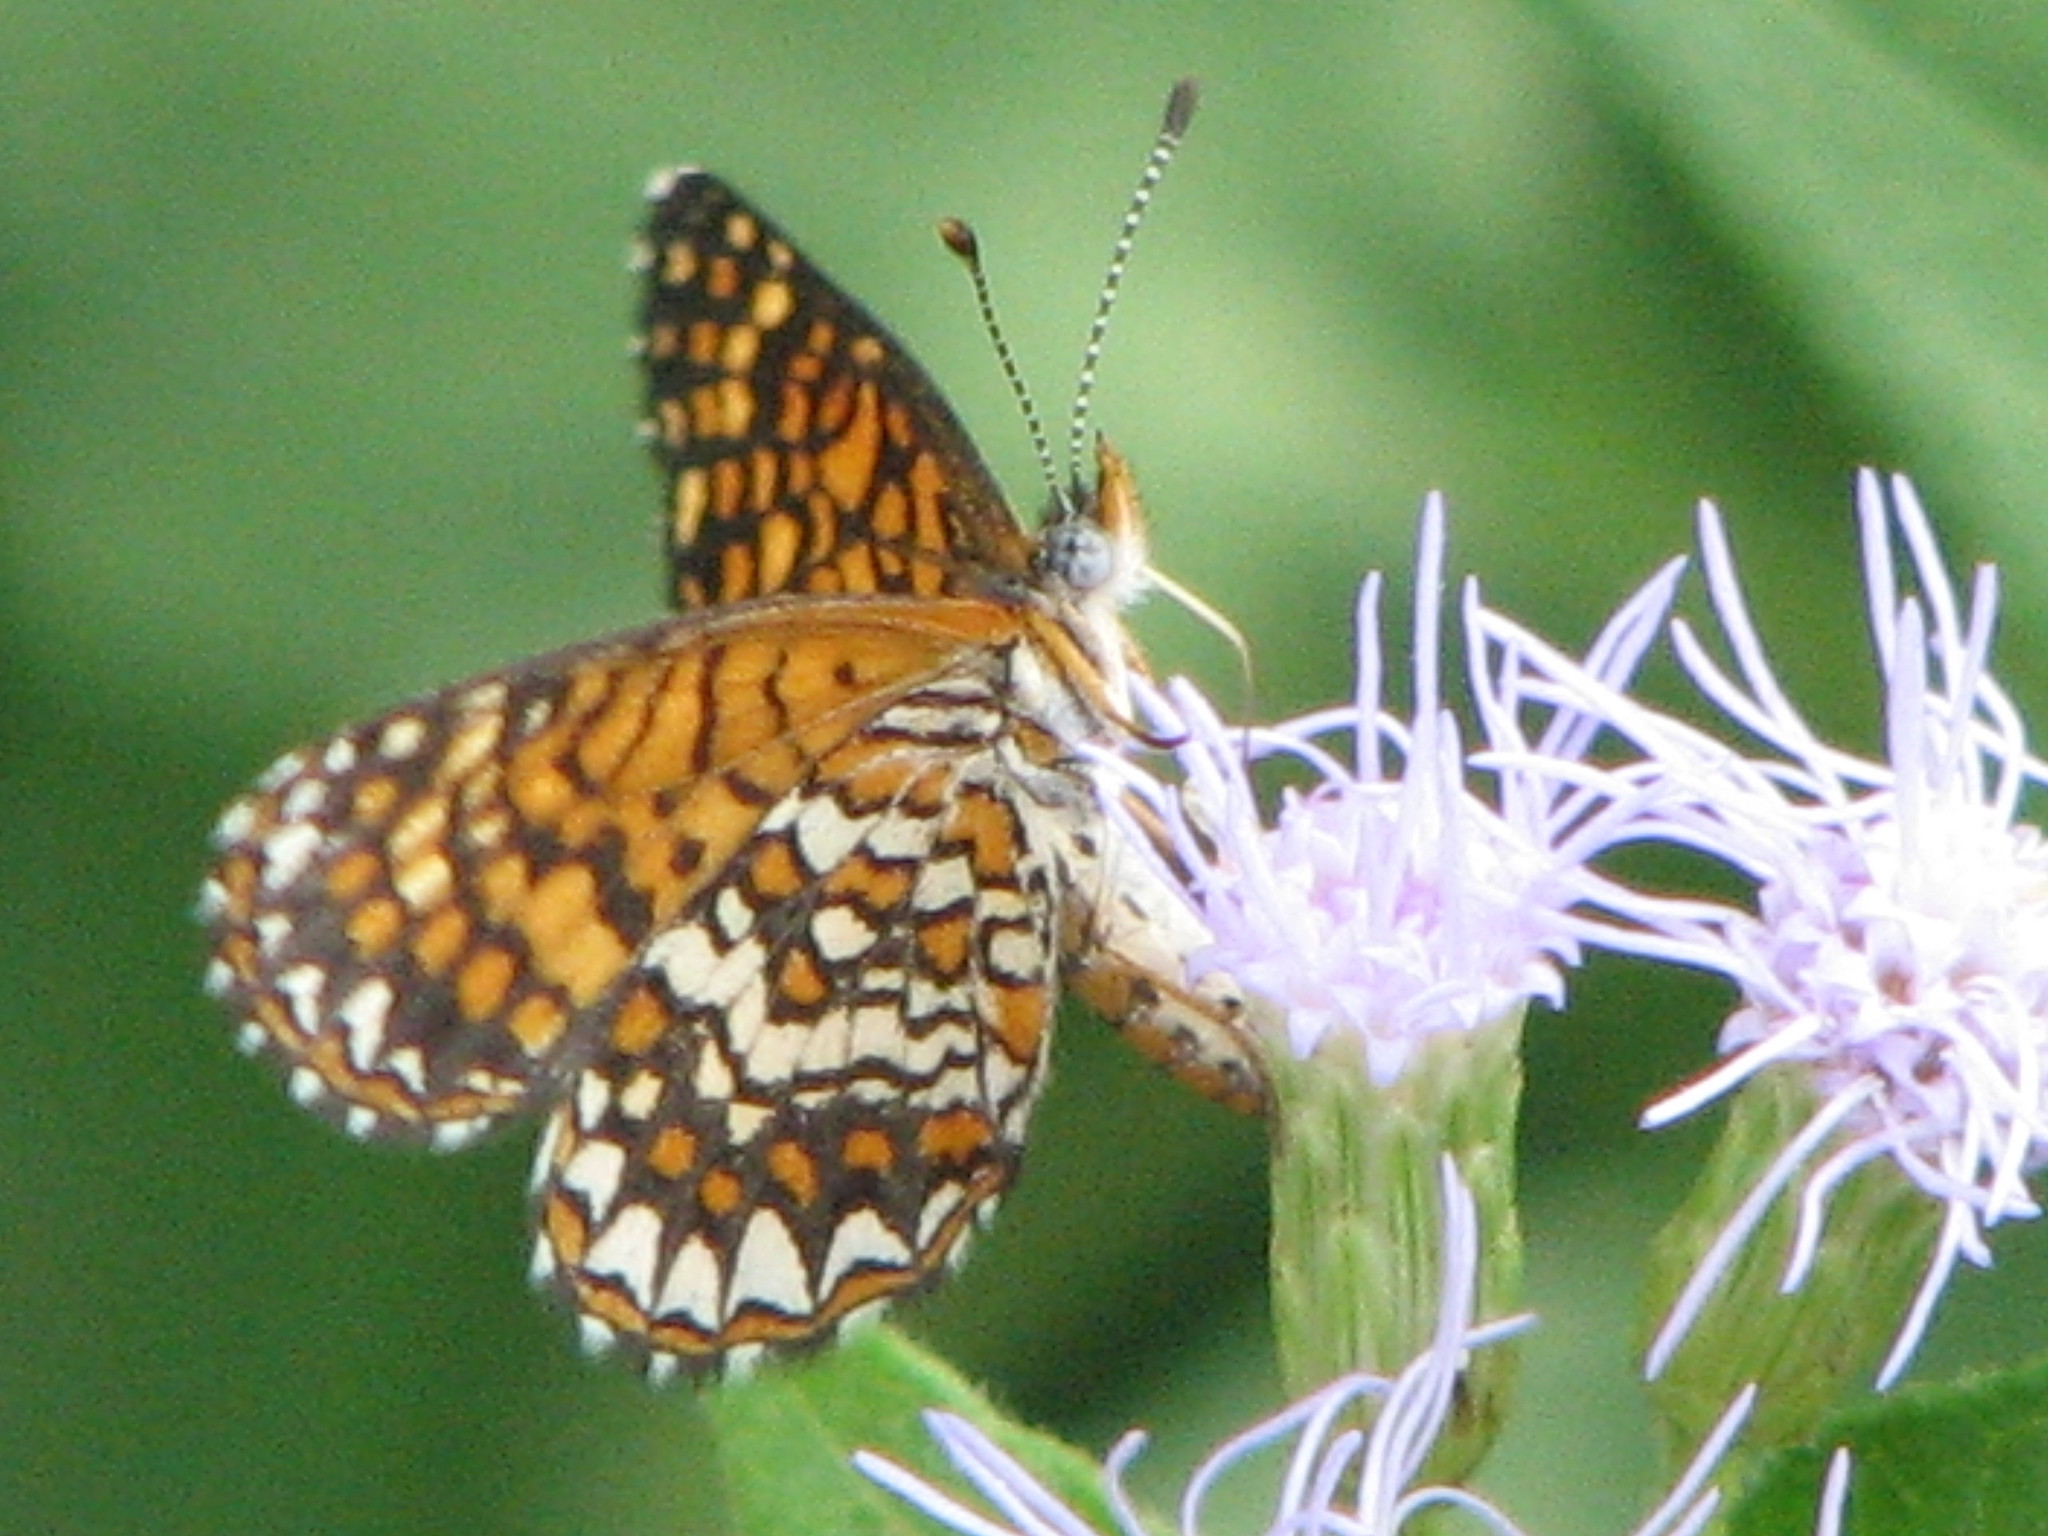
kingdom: Animalia
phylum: Arthropoda
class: Insecta
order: Lepidoptera
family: Nymphalidae
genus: Texola
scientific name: Texola elada
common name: Elada checkerspot
